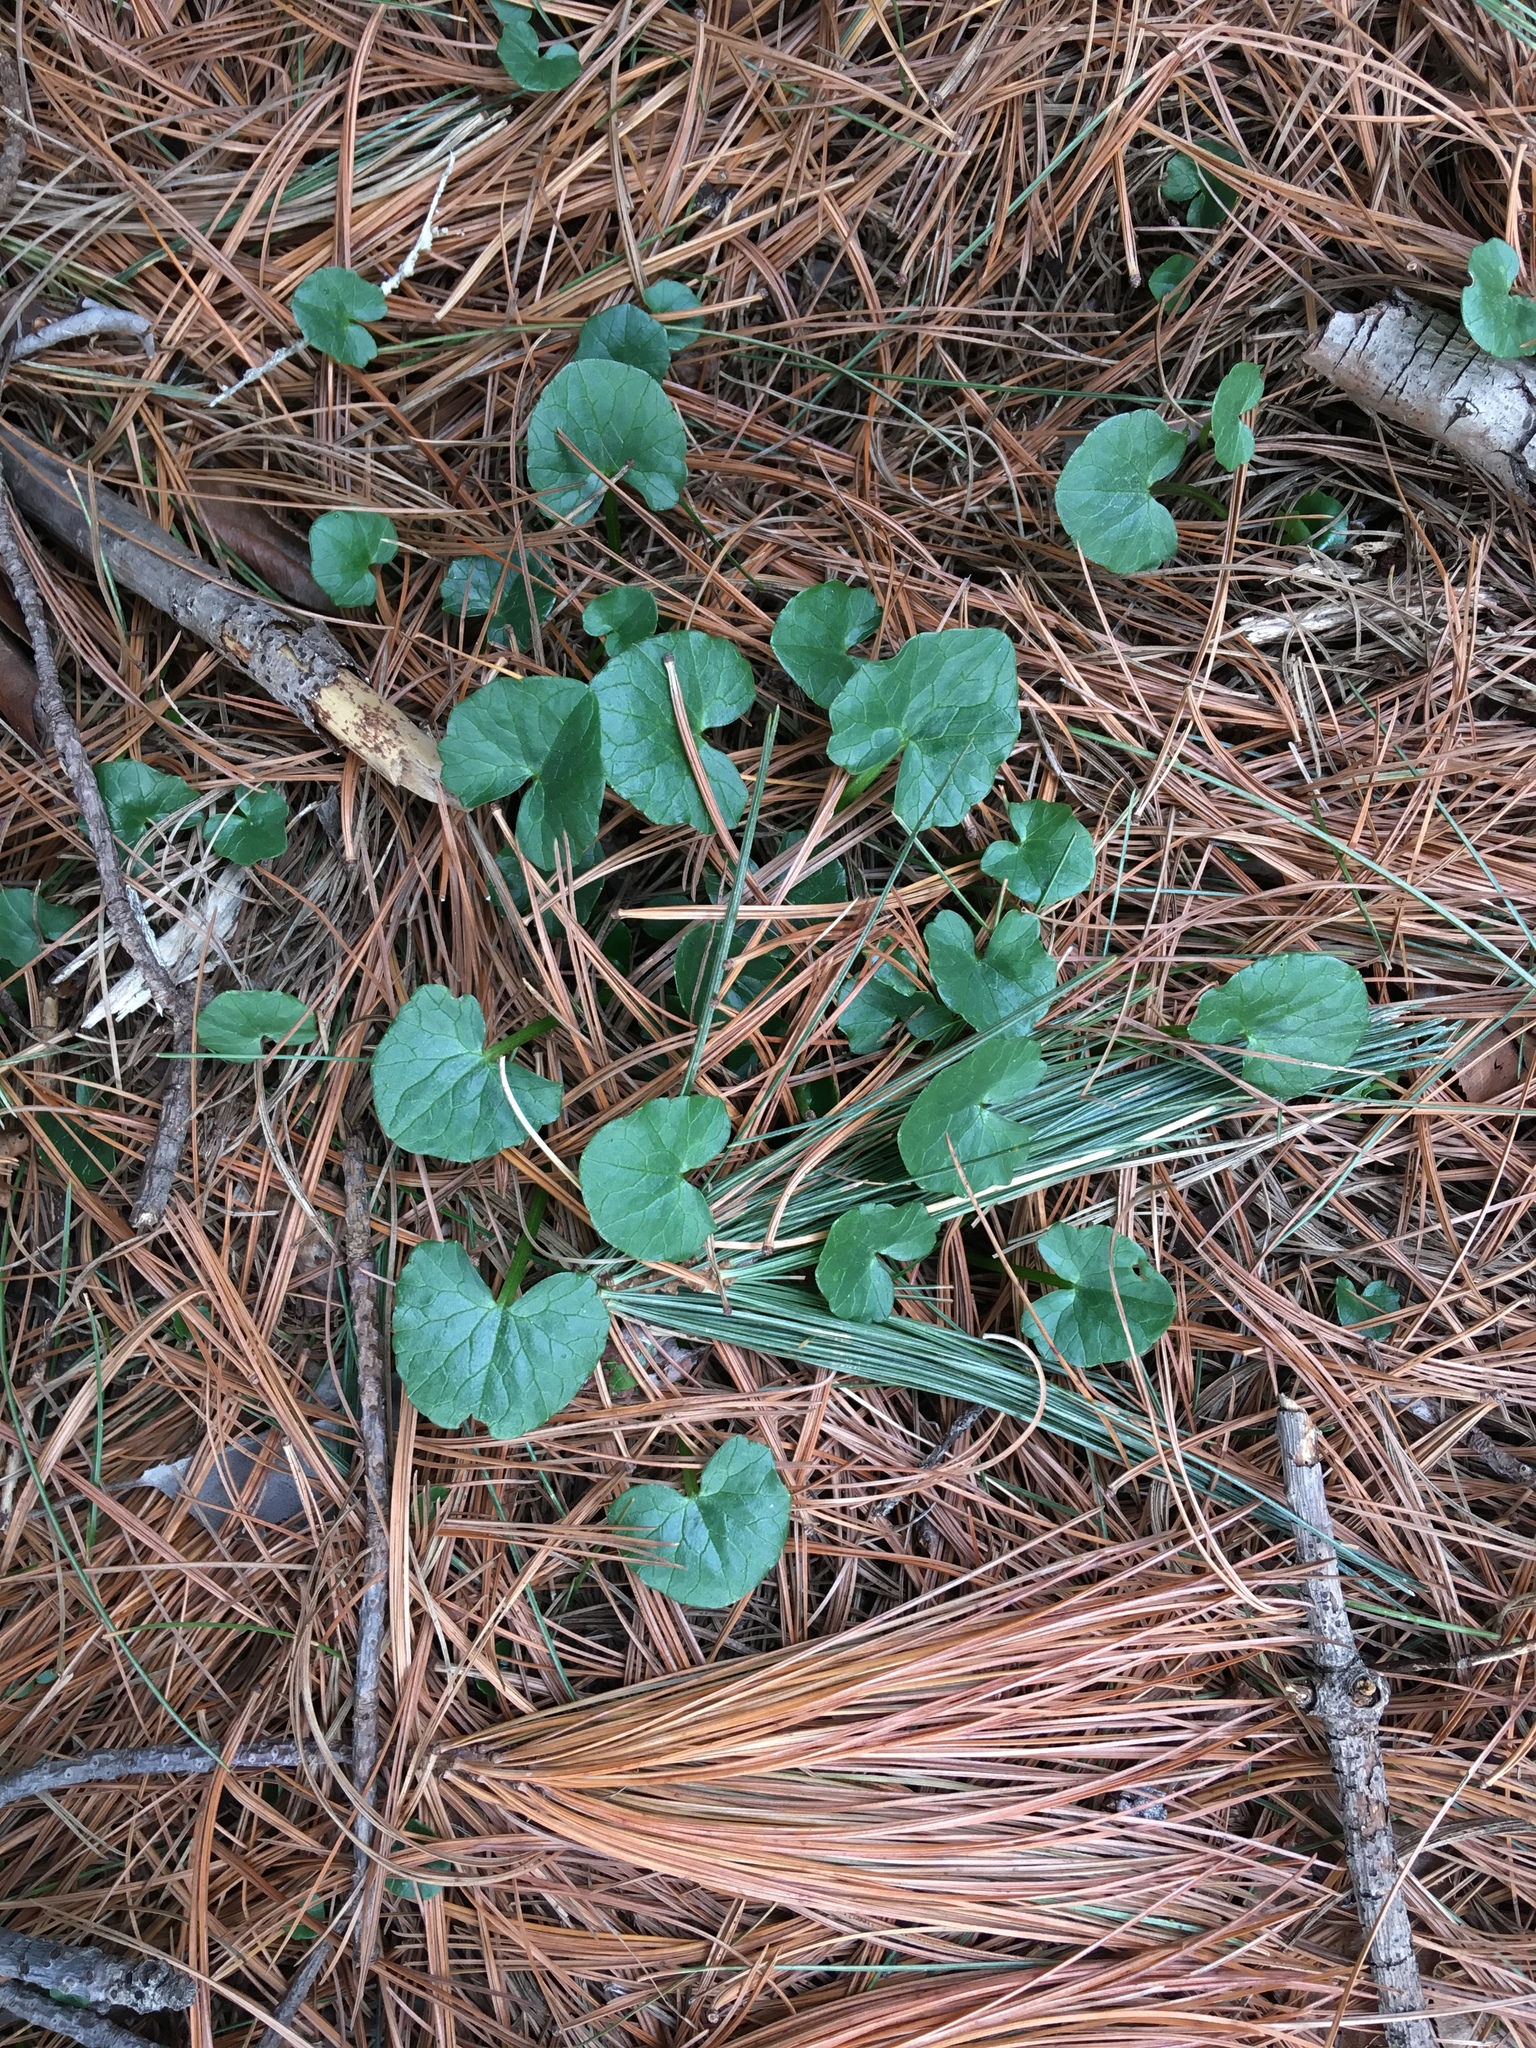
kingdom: Plantae
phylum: Tracheophyta
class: Magnoliopsida
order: Ranunculales
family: Ranunculaceae
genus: Ficaria
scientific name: Ficaria verna
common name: Lesser celandine
